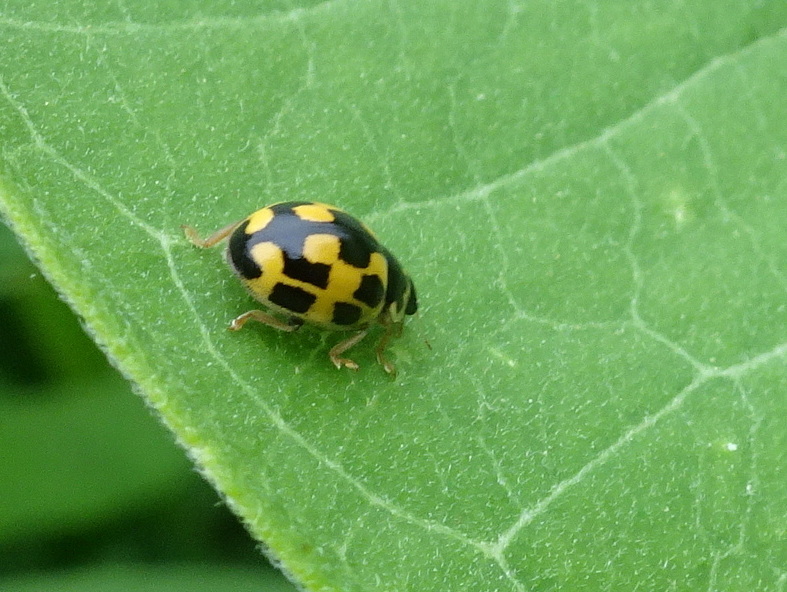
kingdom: Animalia
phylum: Arthropoda
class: Insecta
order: Coleoptera
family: Coccinellidae
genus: Propylaea
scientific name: Propylaea quatuordecimpunctata
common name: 14-spotted ladybird beetle
